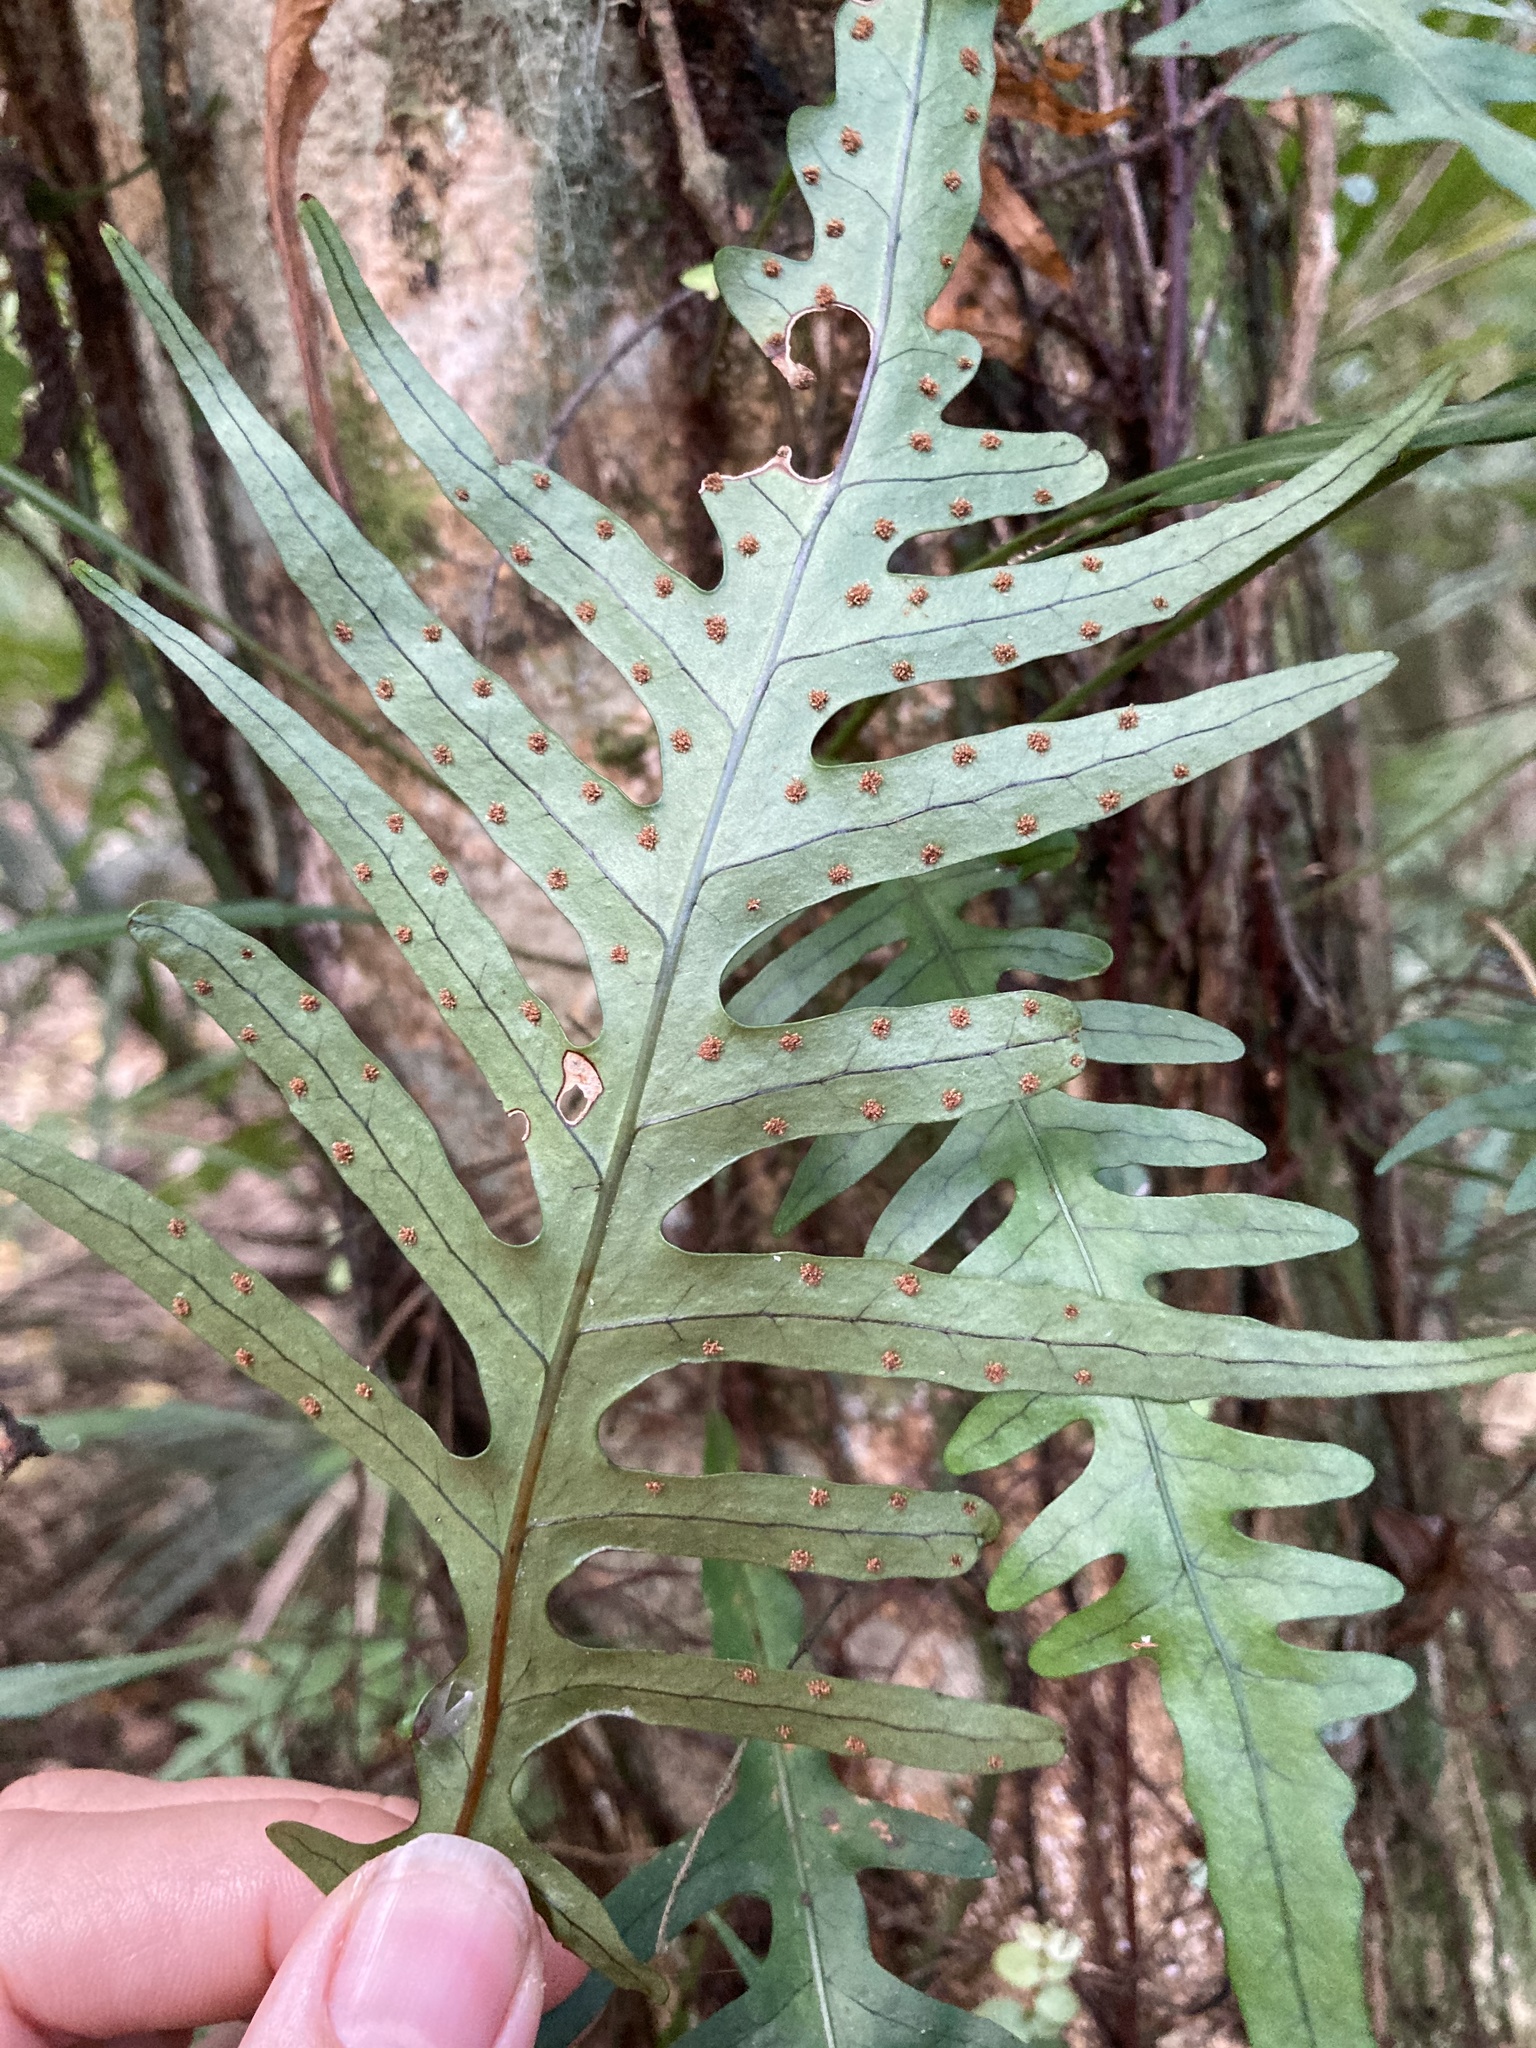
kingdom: Plantae
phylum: Tracheophyta
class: Polypodiopsida
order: Polypodiales
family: Polypodiaceae
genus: Lecanopteris
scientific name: Lecanopteris scandens
